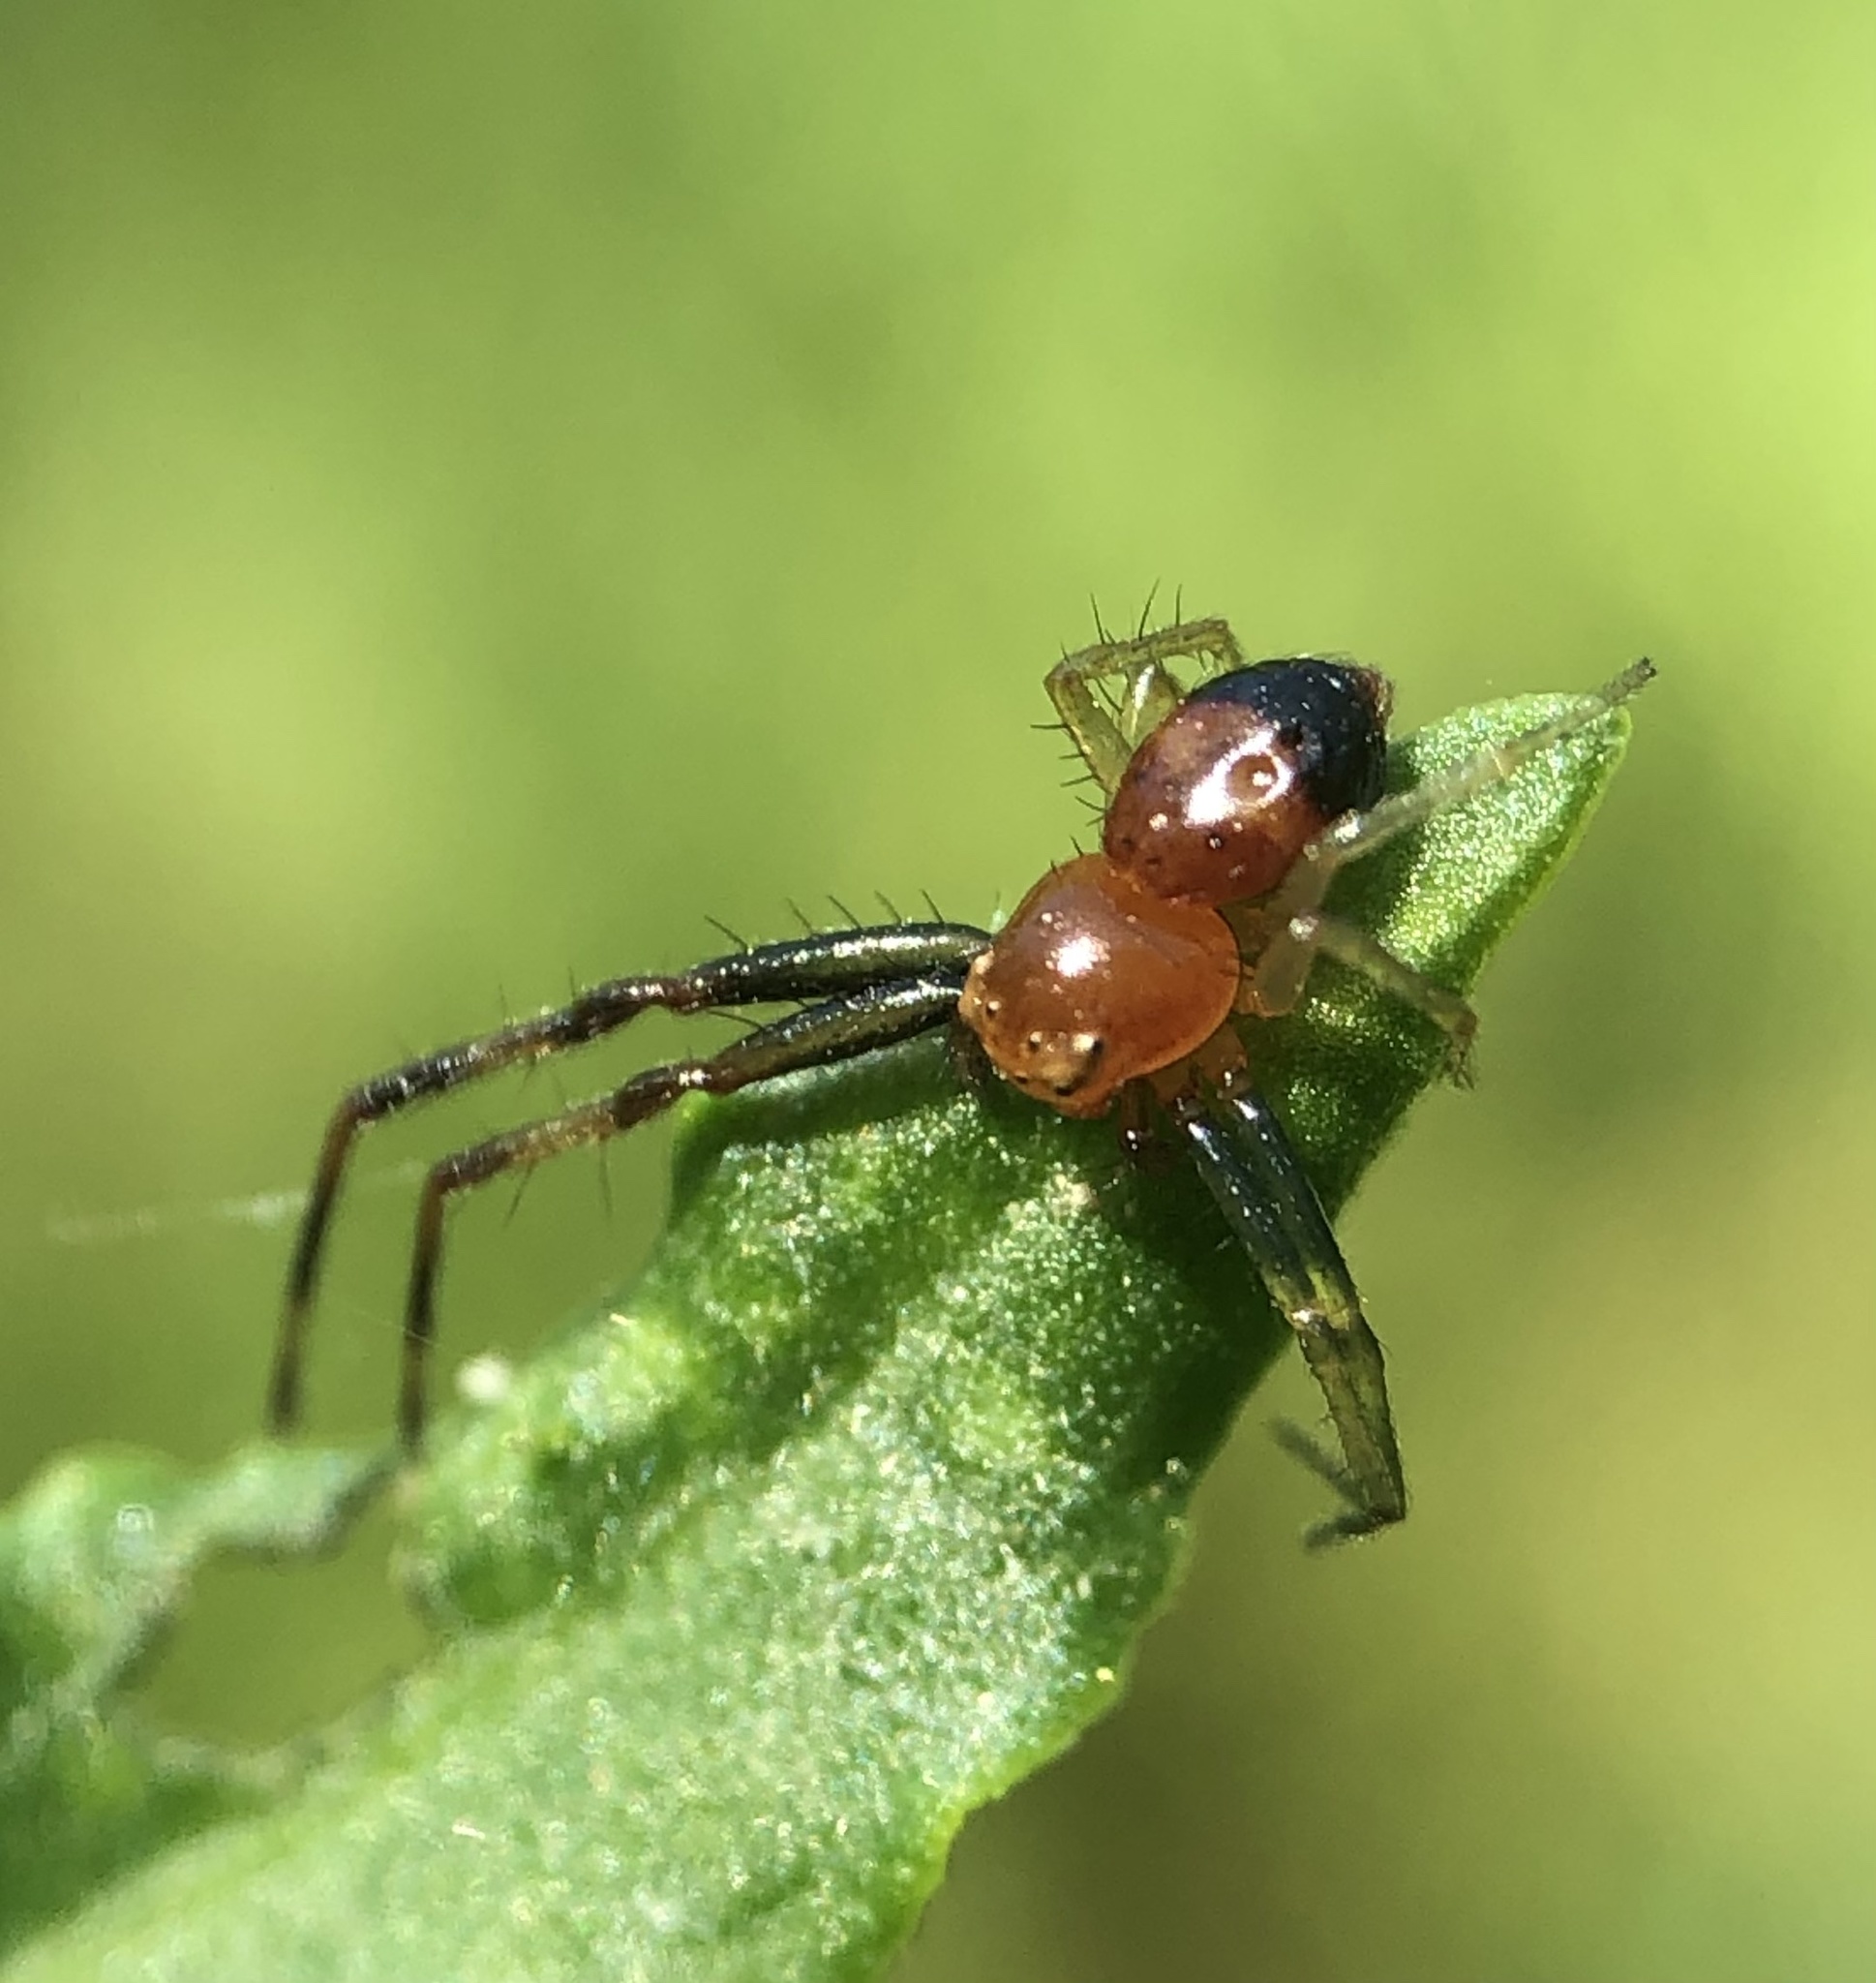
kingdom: Animalia
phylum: Arthropoda
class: Arachnida
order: Araneae
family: Thomisidae
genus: Synema
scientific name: Synema parvulum
